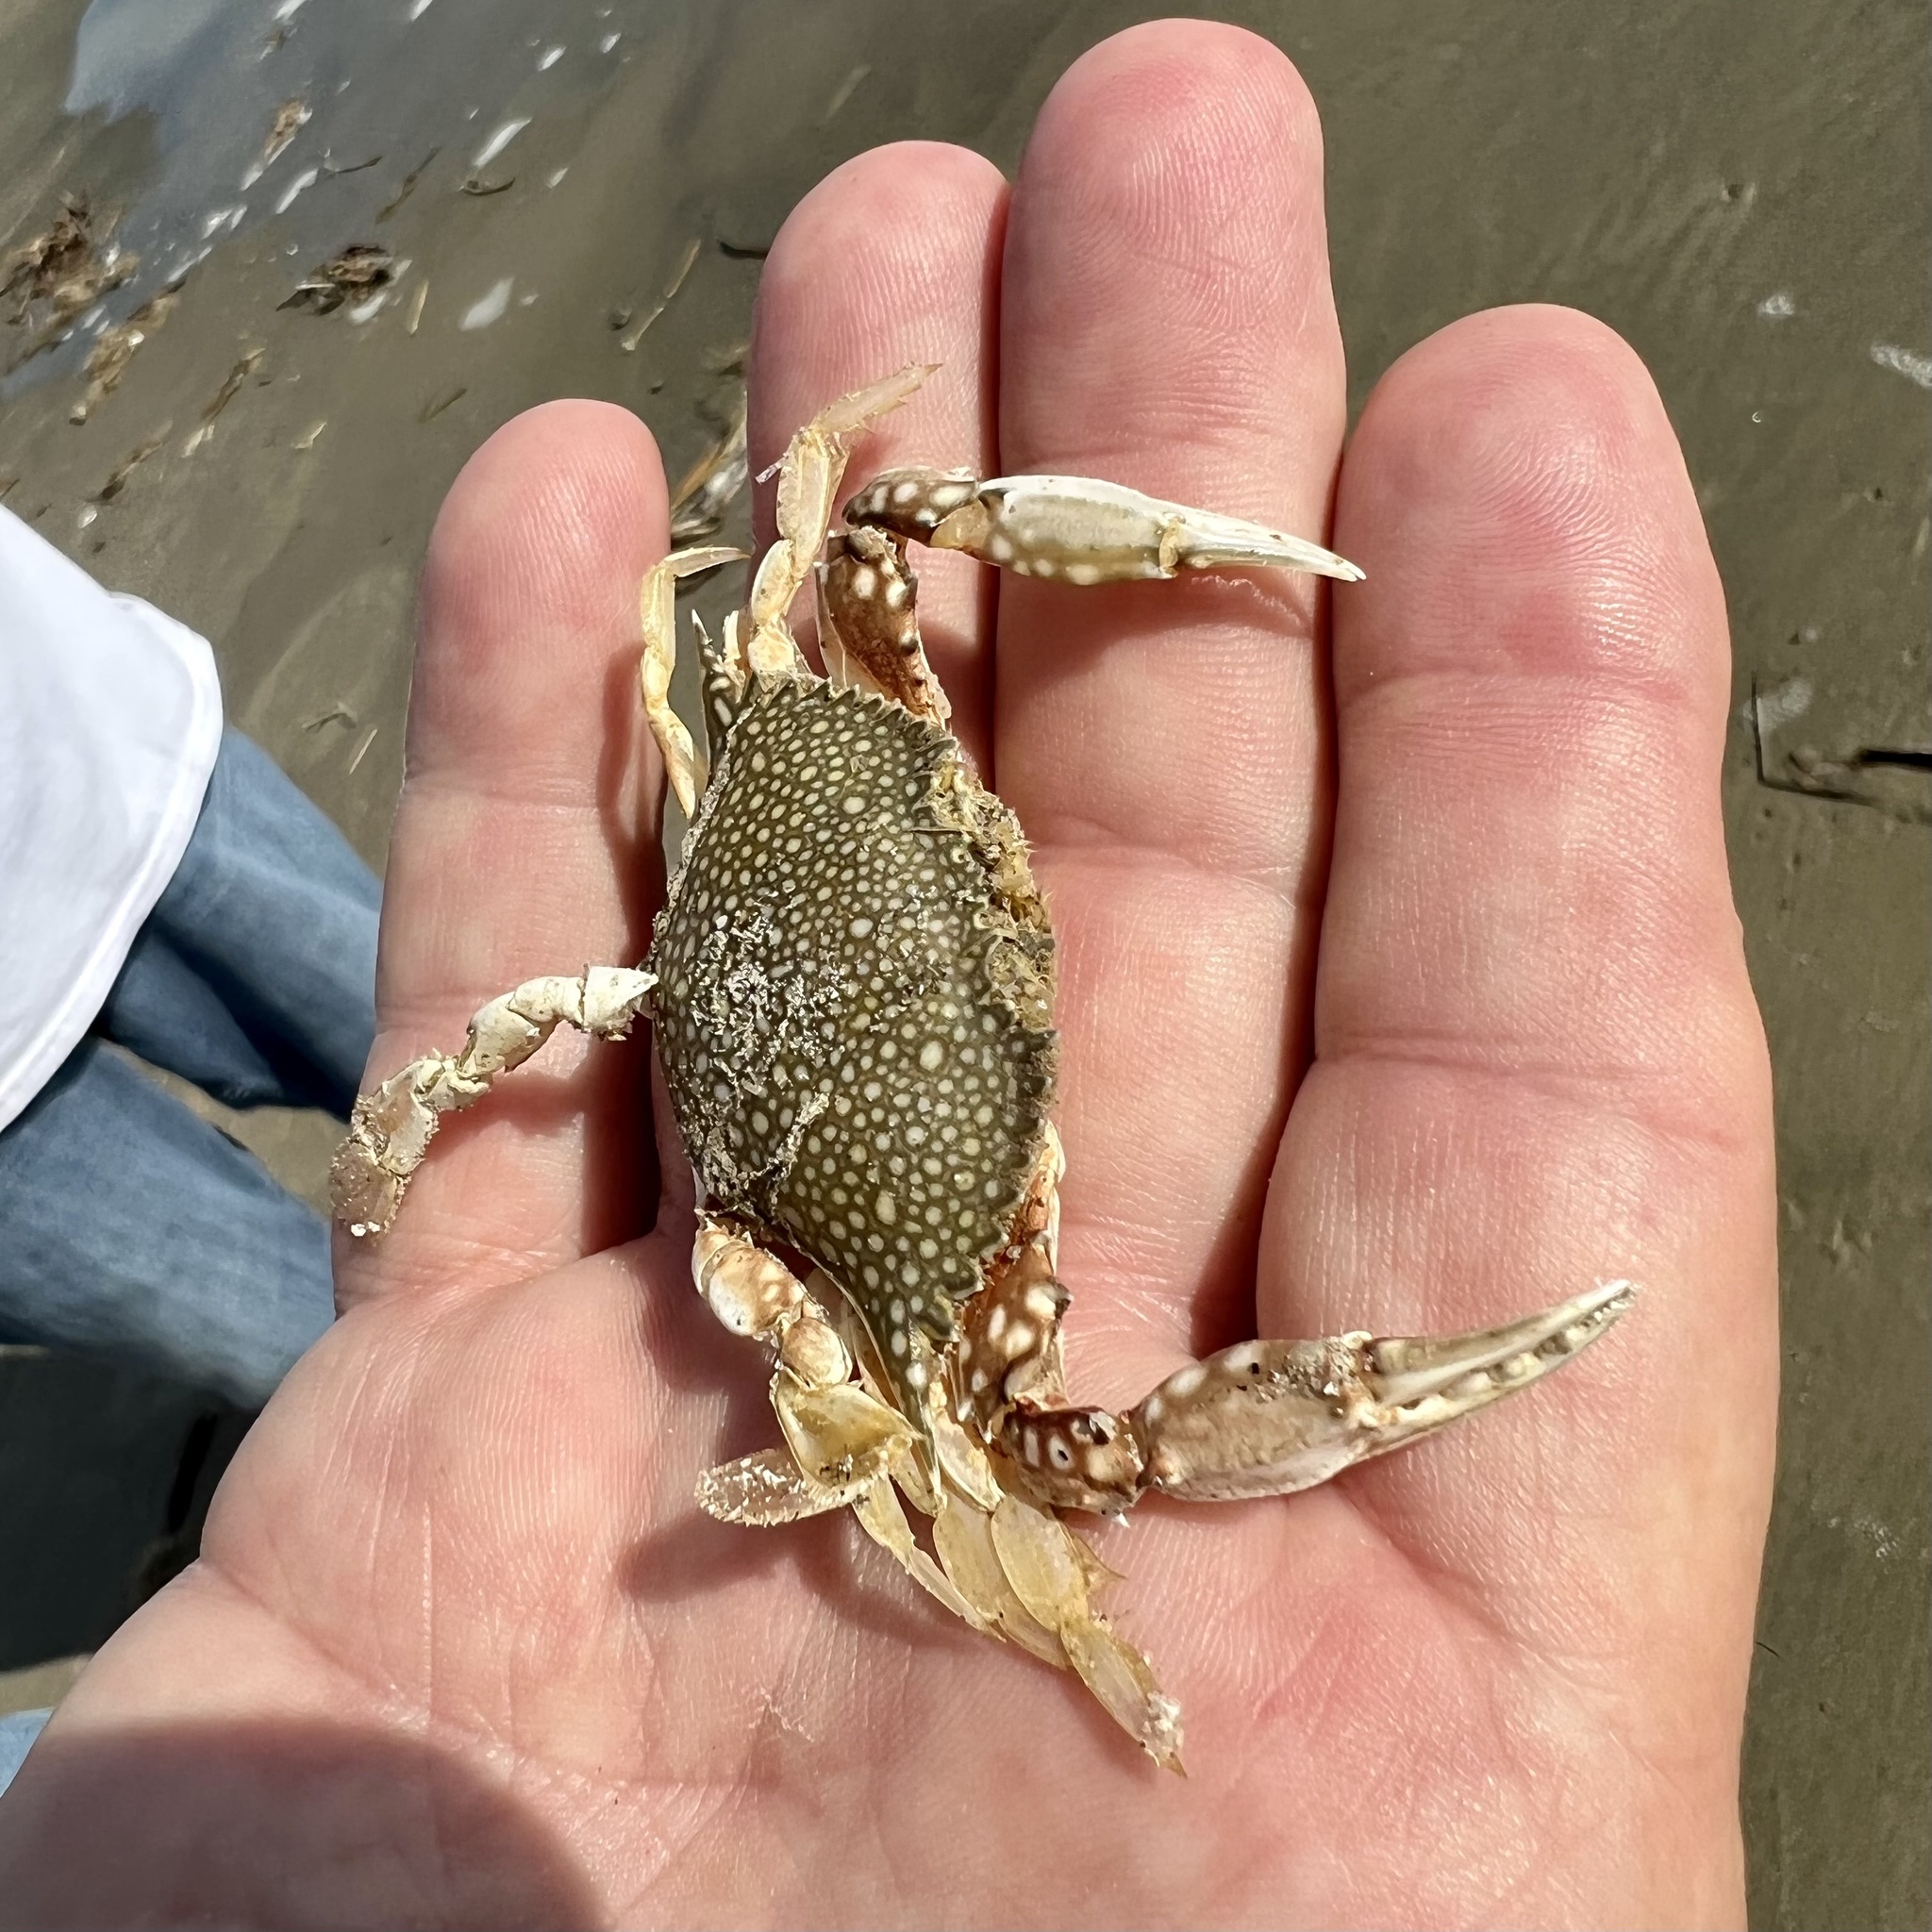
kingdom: Animalia
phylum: Arthropoda
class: Malacostraca
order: Decapoda
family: Portunidae
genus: Arenaeus
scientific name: Arenaeus cribrarius
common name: Speckled crab
